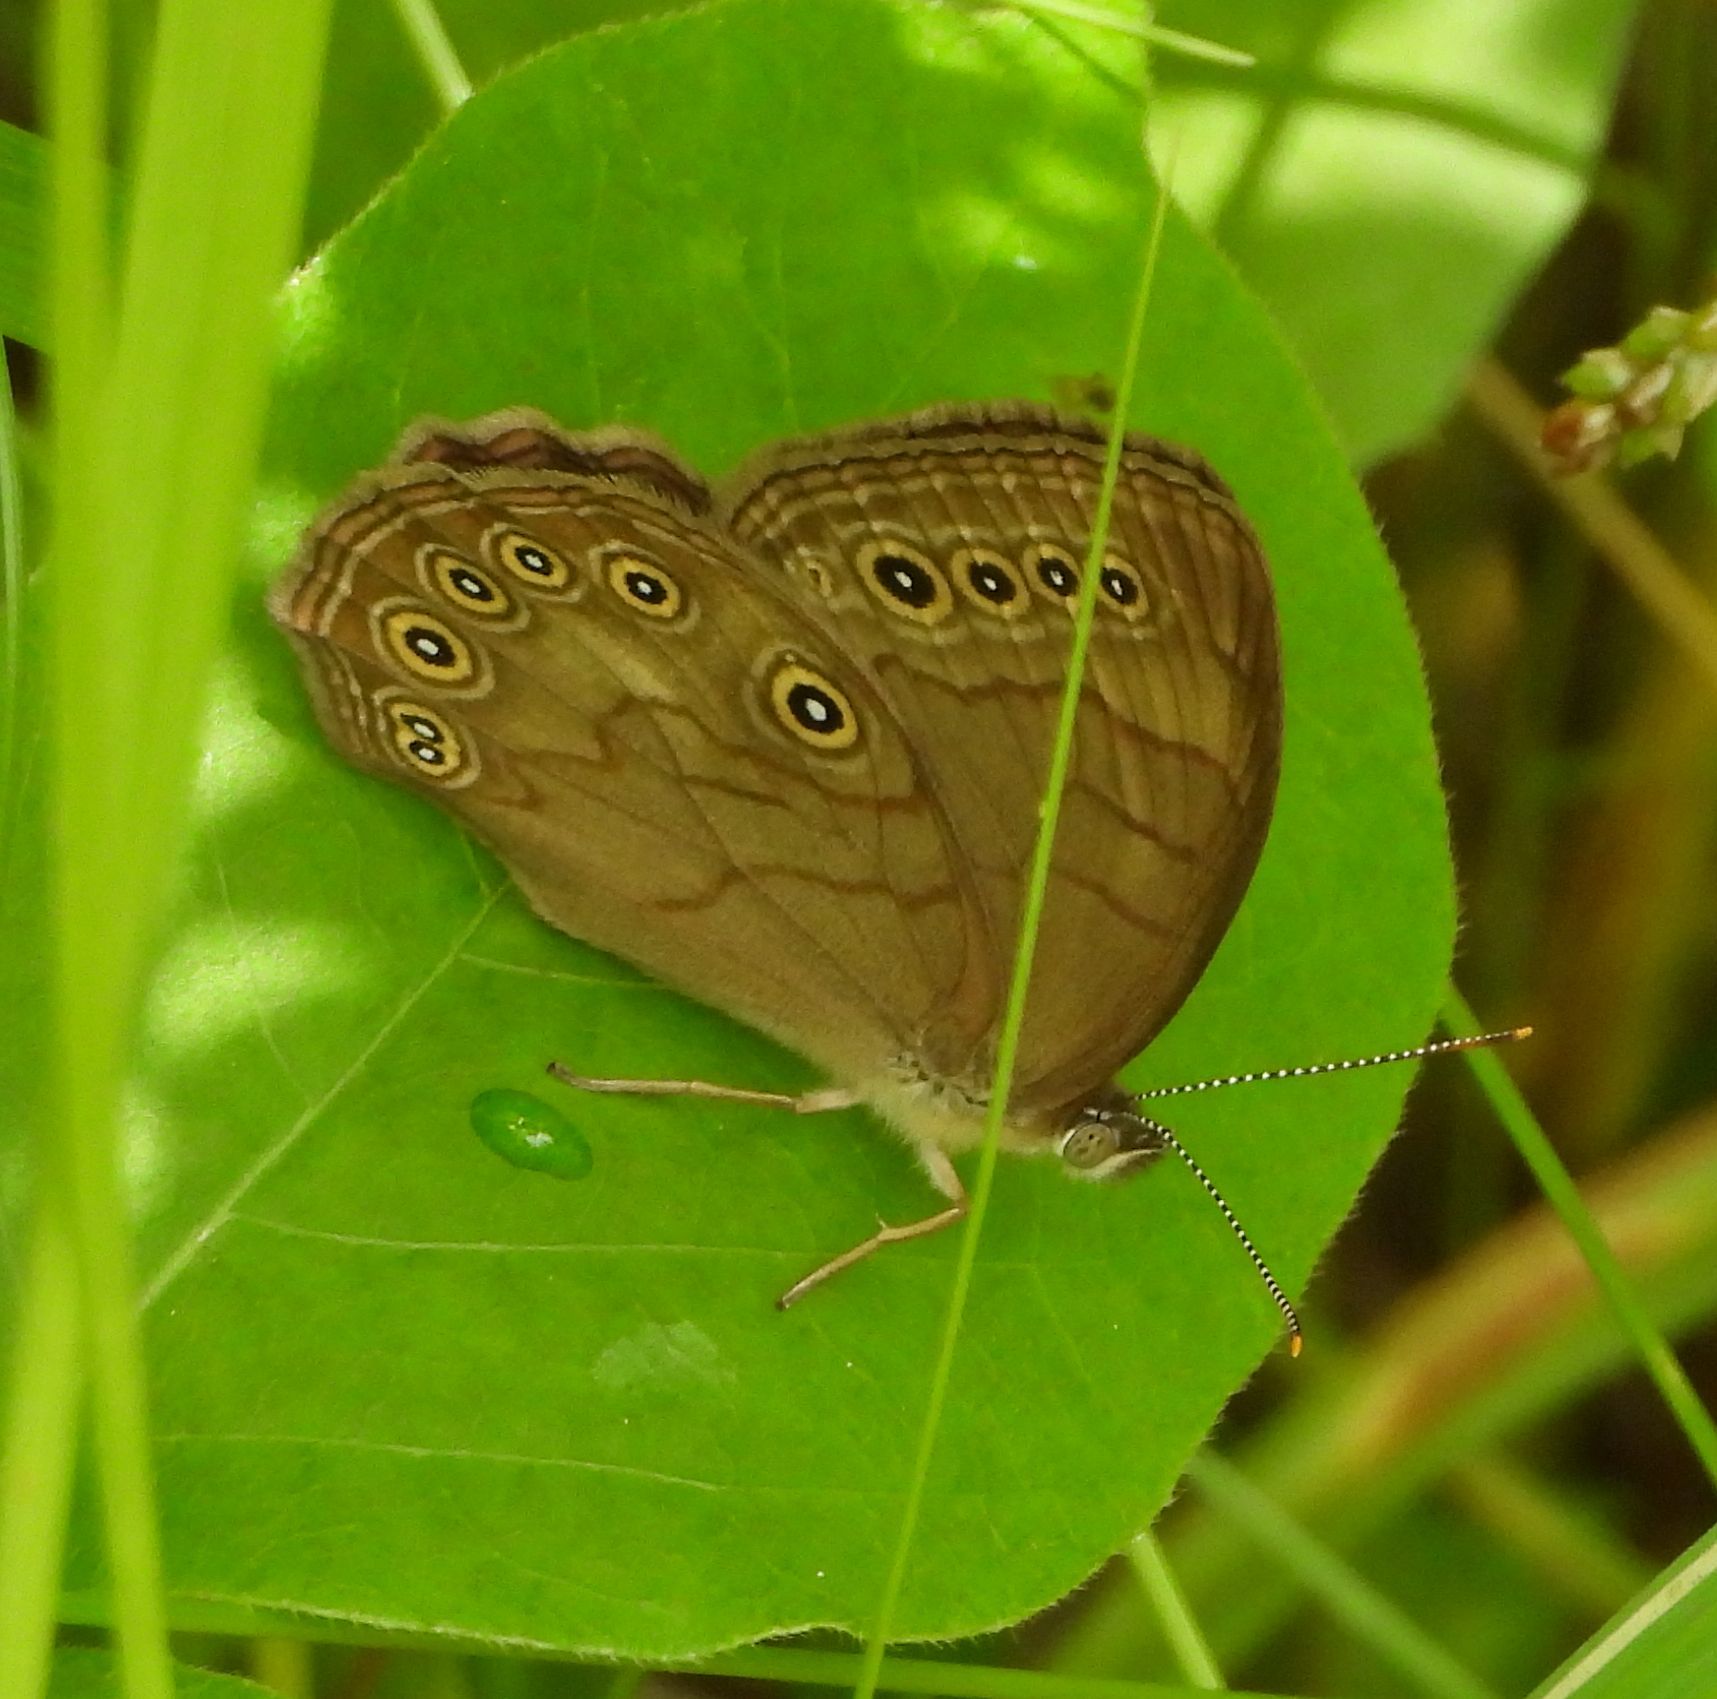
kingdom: Animalia
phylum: Arthropoda
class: Insecta
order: Lepidoptera
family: Nymphalidae
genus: Lethe
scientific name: Lethe eurydice
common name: Eyed brown
